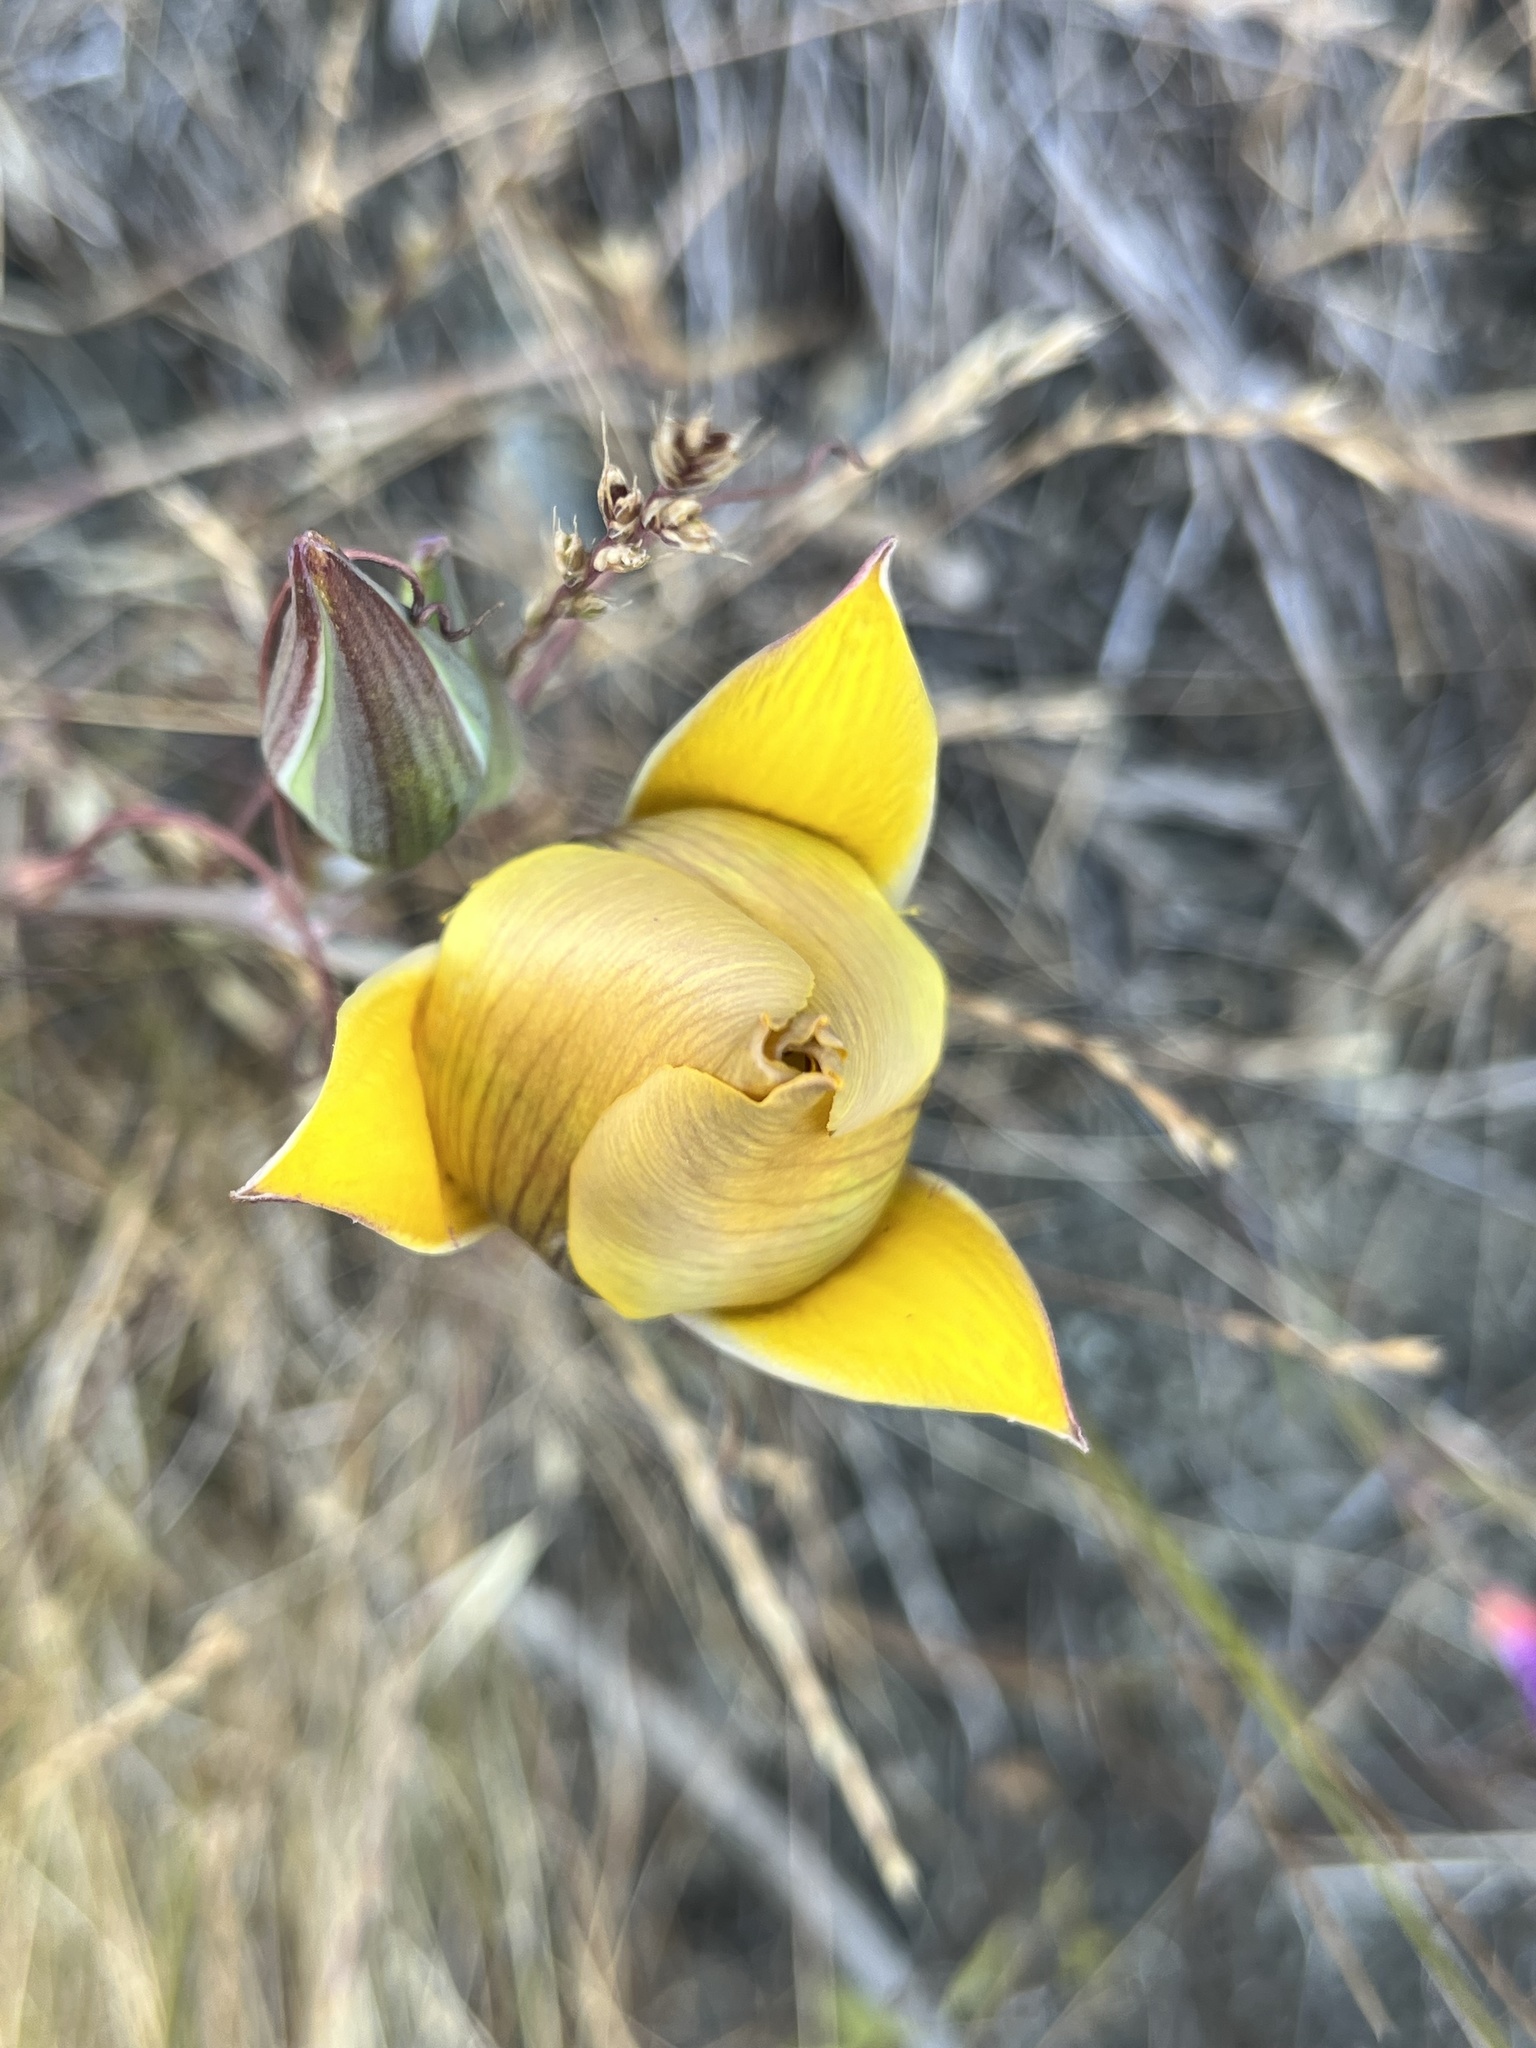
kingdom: Plantae
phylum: Tracheophyta
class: Liliopsida
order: Liliales
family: Liliaceae
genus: Calochortus
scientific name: Calochortus clavatus
